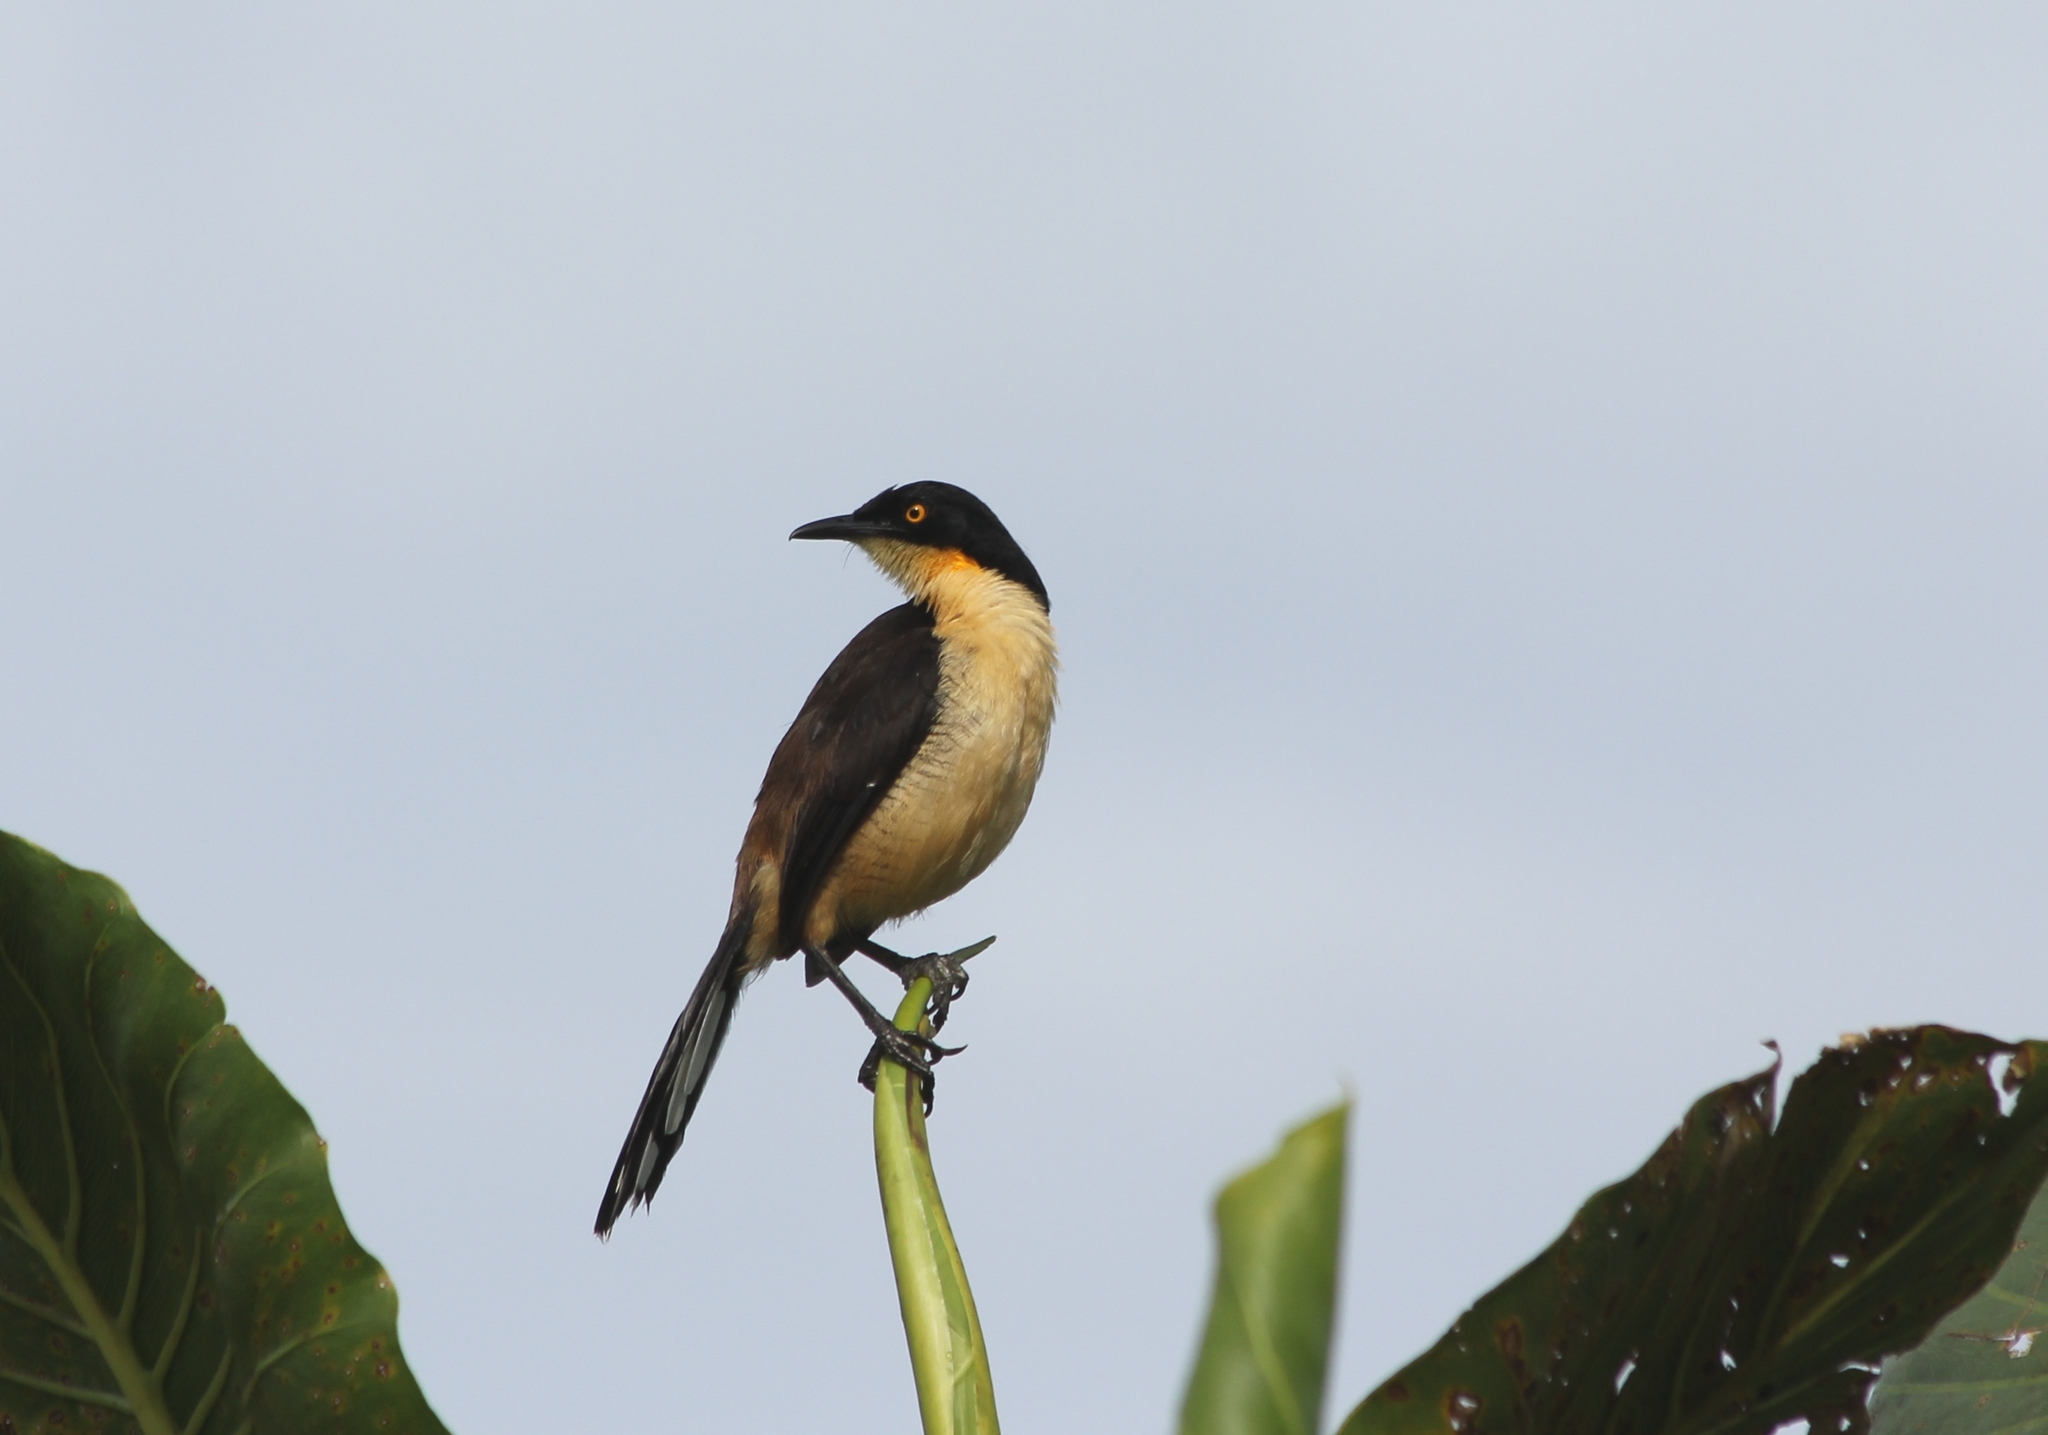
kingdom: Animalia
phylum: Chordata
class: Aves
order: Passeriformes
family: Donacobiidae
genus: Donacobius
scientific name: Donacobius atricapilla
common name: Black-capped donacobius
